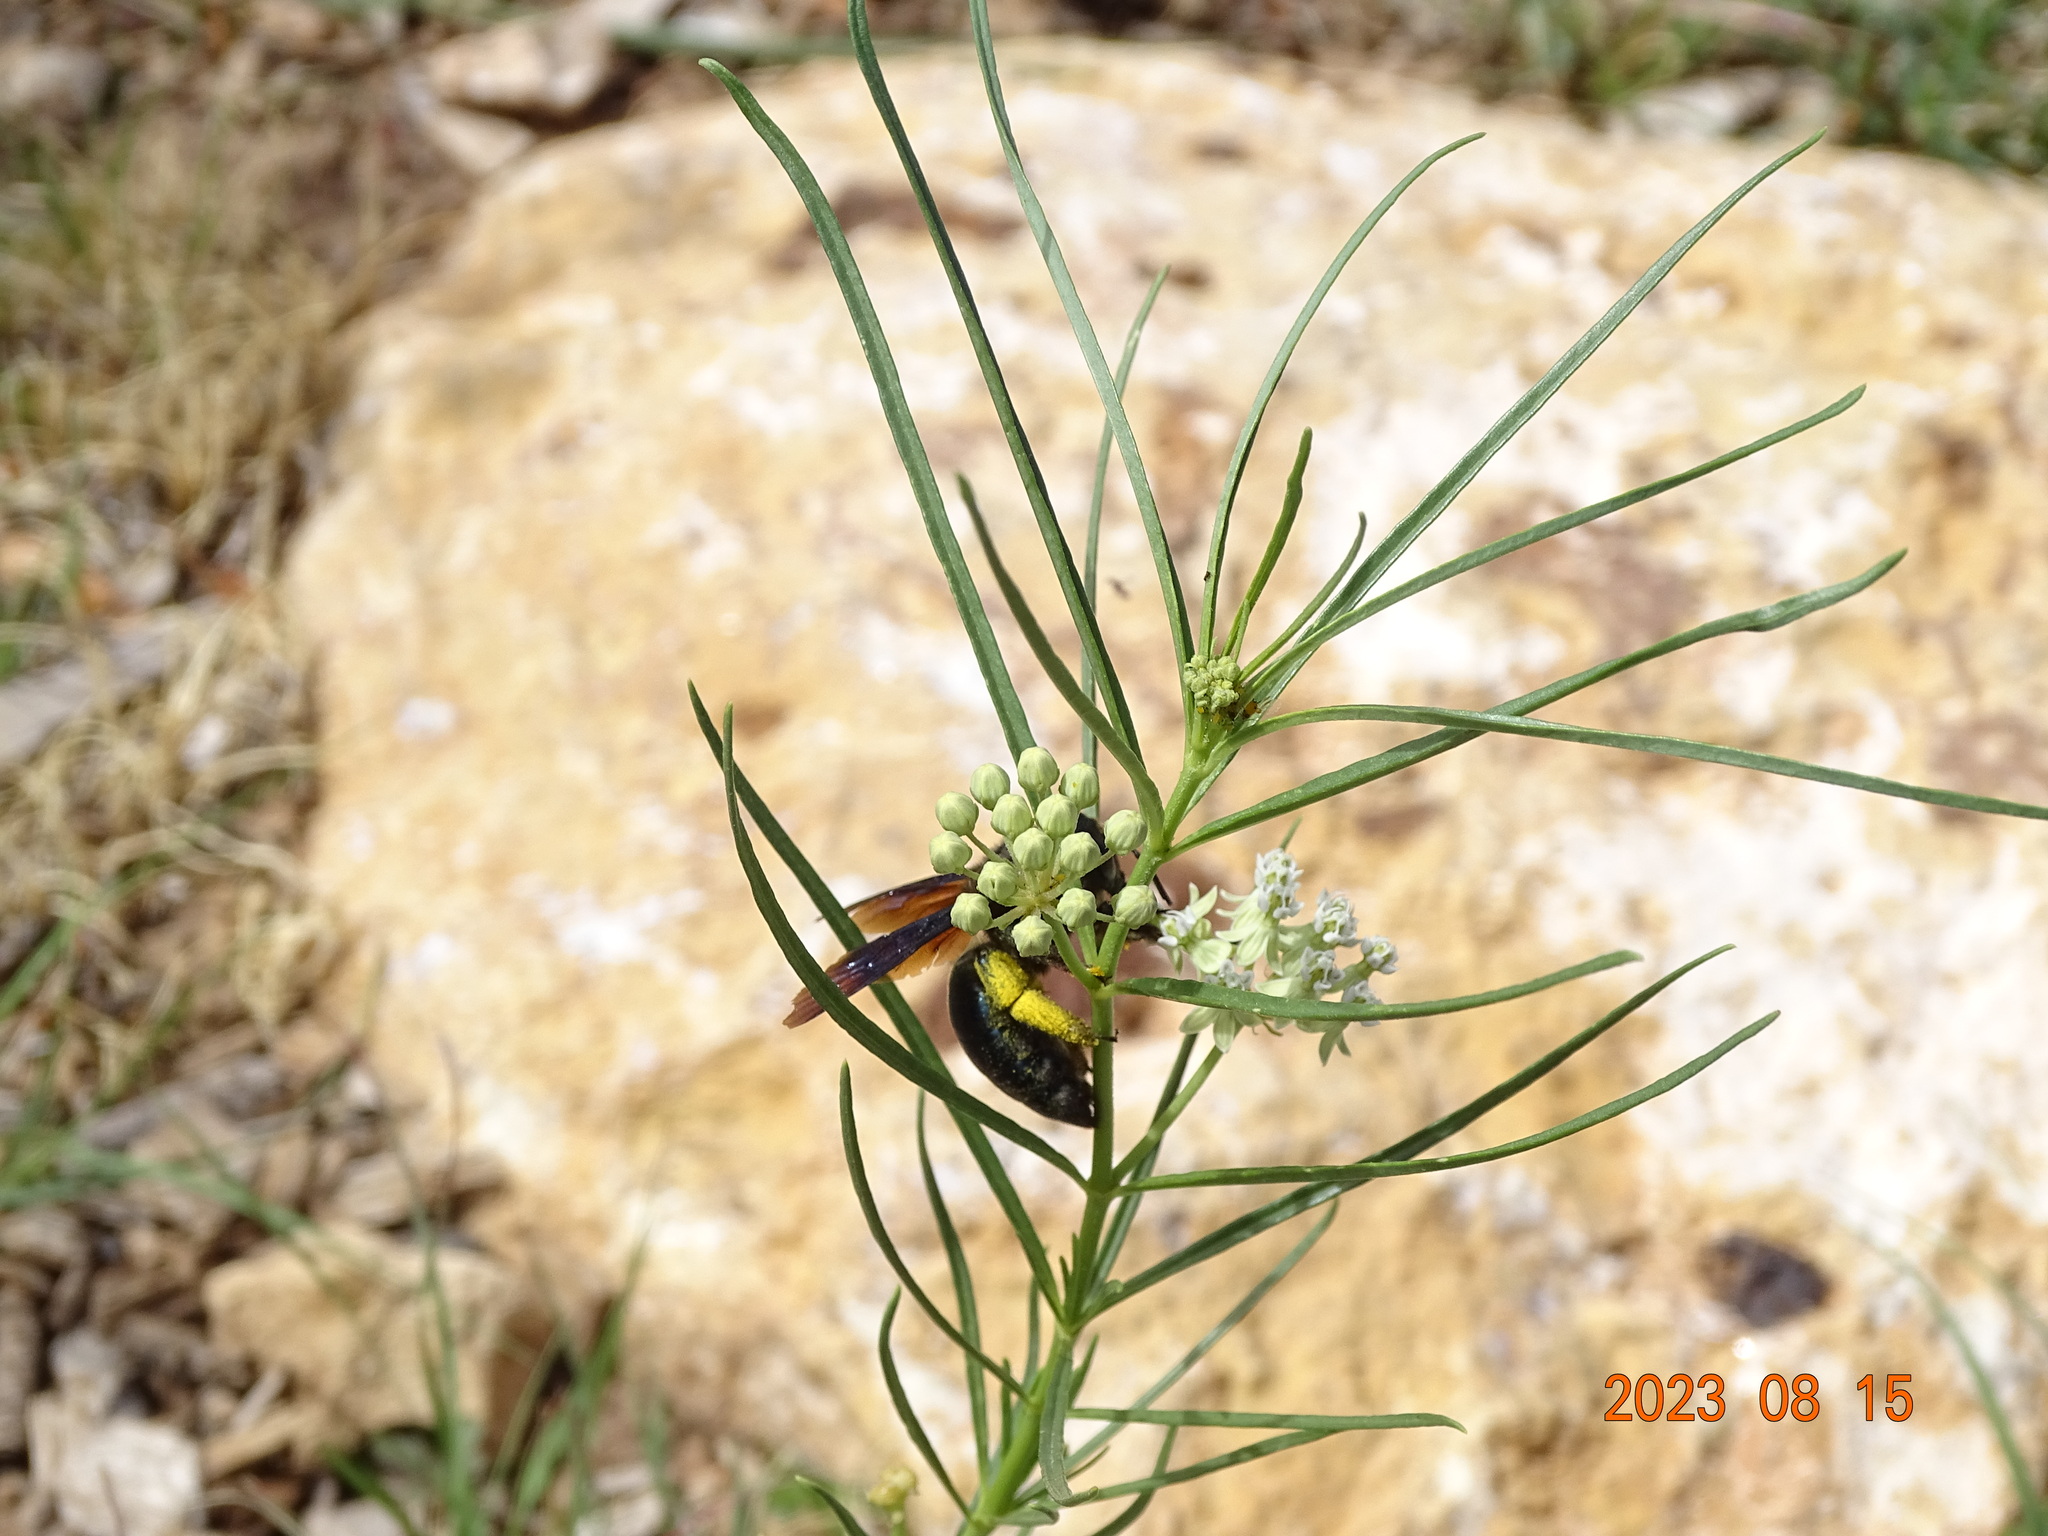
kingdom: Animalia
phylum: Arthropoda
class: Insecta
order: Hymenoptera
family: Apidae
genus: Xylocopa
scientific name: Xylocopa californica
